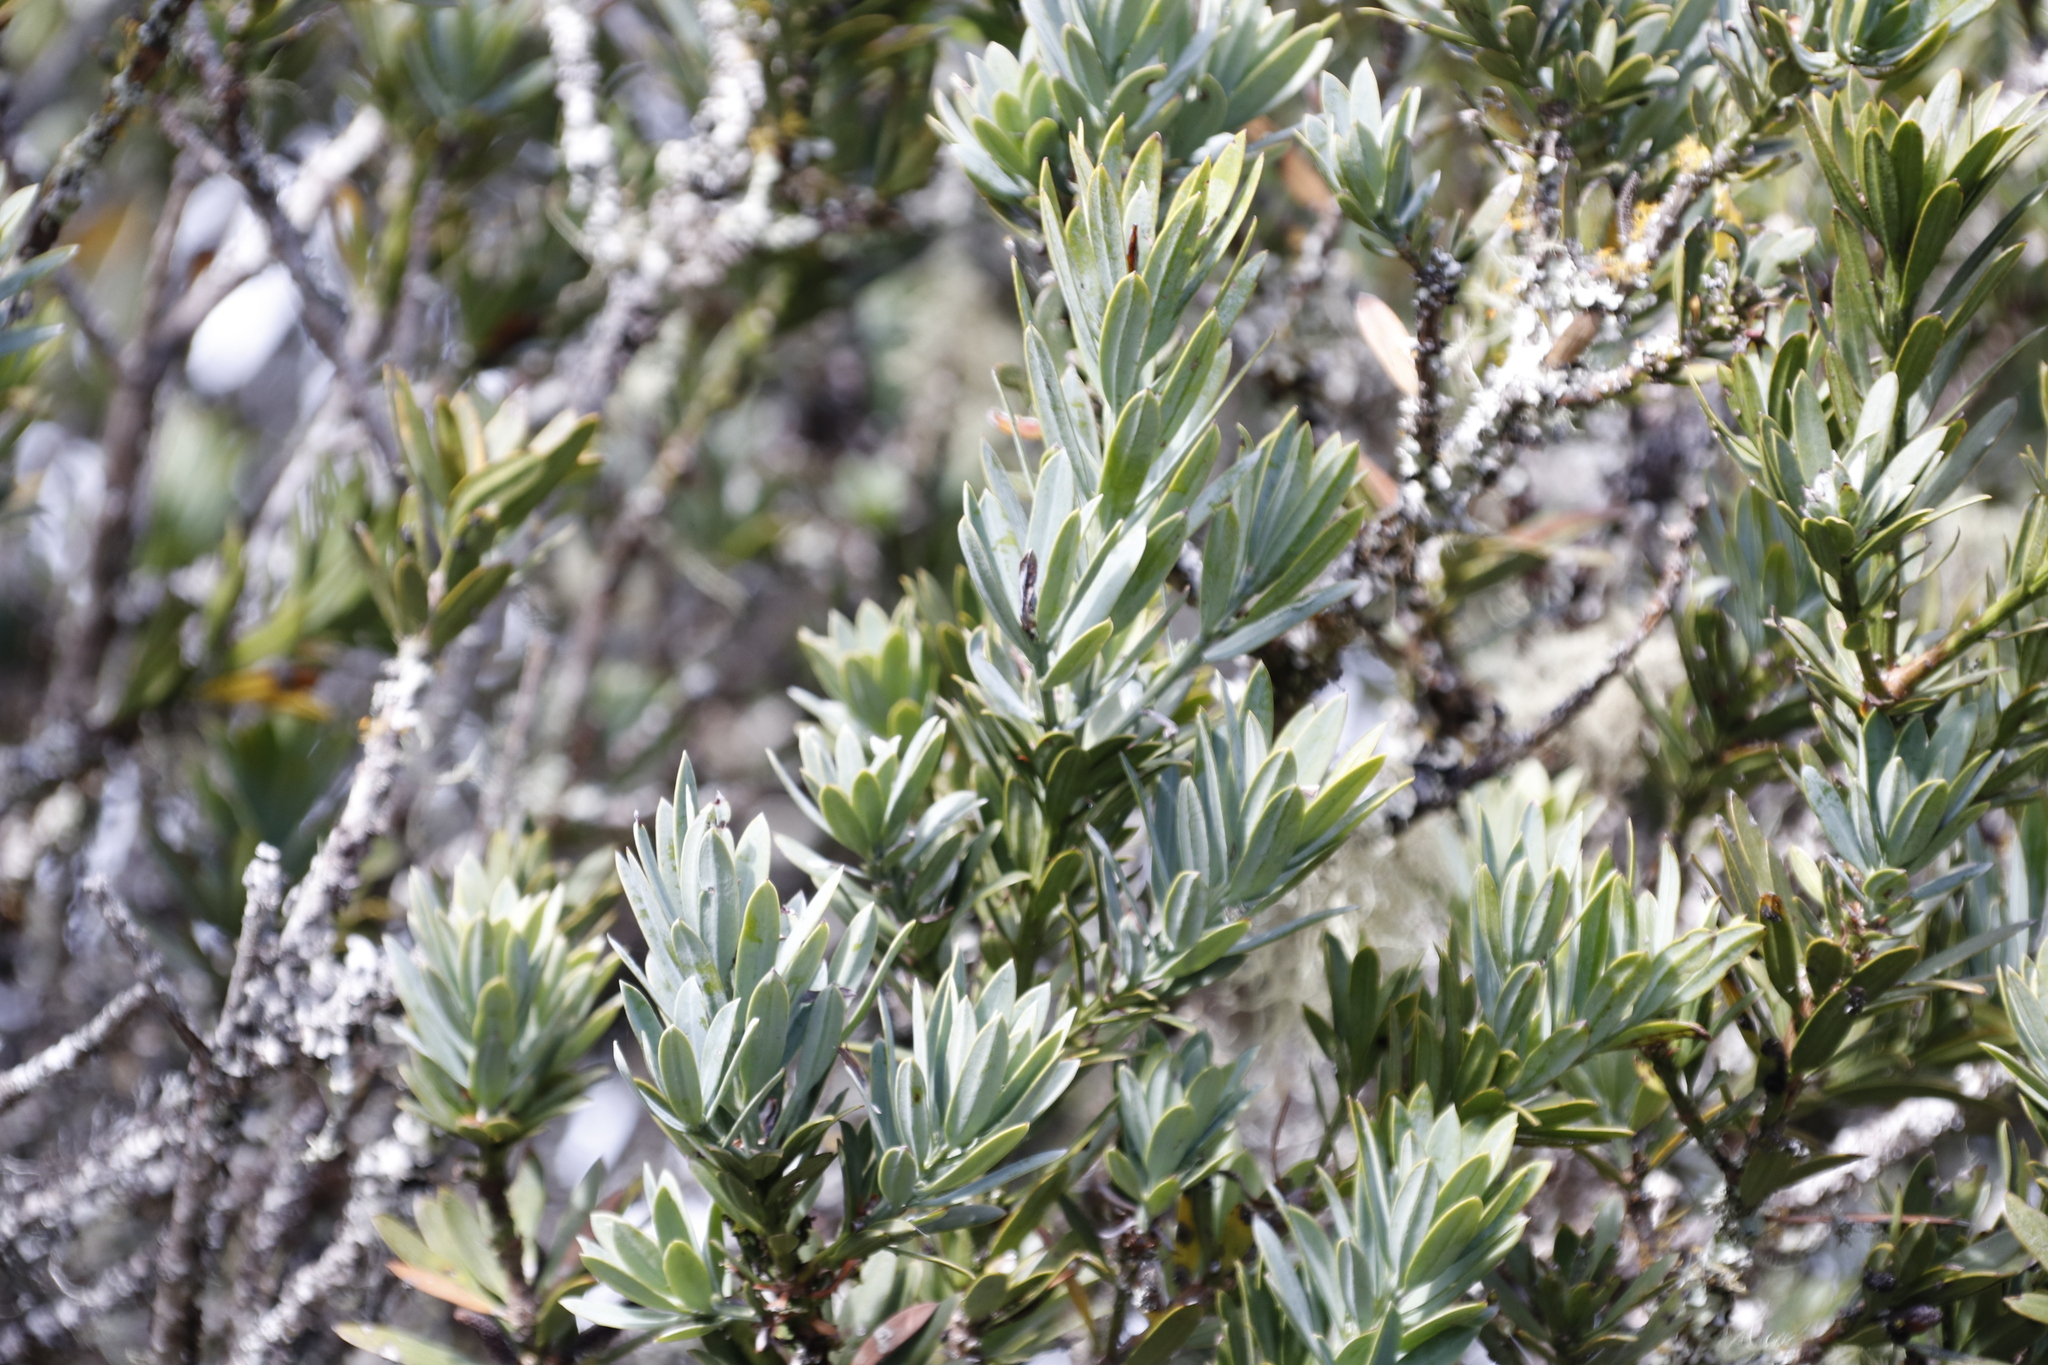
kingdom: Plantae
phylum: Tracheophyta
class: Pinopsida
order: Pinales
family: Podocarpaceae
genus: Podocarpus
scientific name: Podocarpus latifolius
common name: True yellowwood
